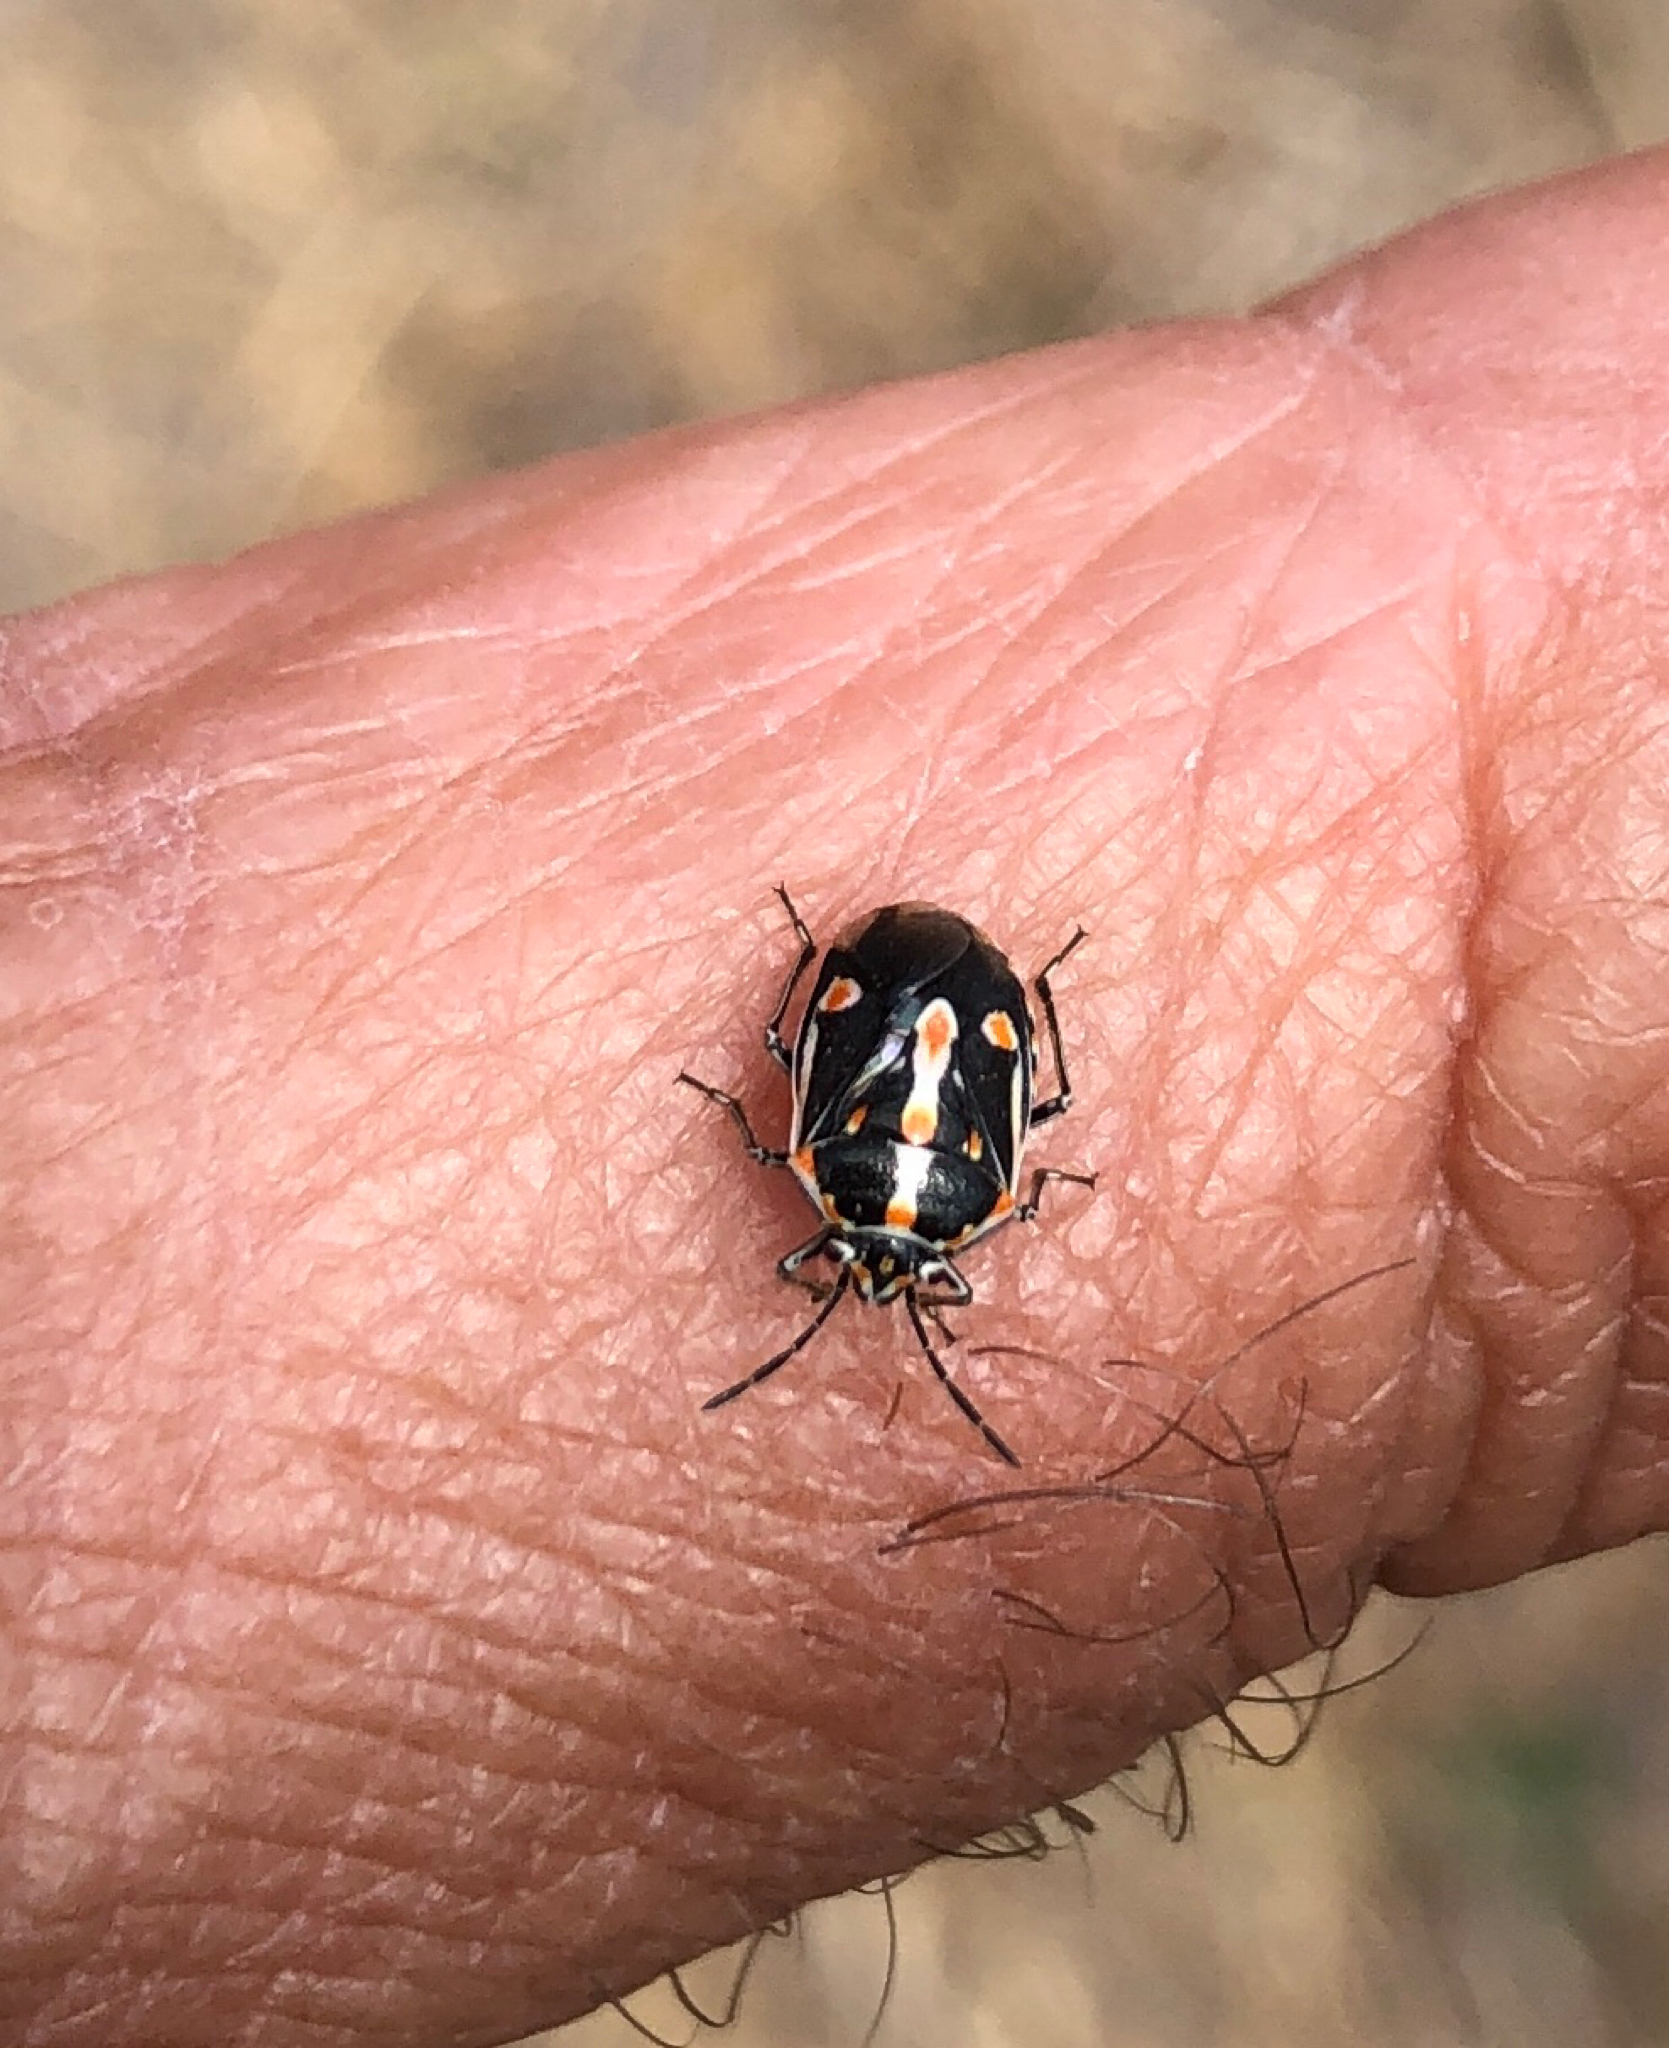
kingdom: Animalia
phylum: Arthropoda
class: Insecta
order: Hemiptera
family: Pentatomidae
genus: Bagrada
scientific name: Bagrada hilaris
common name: Bagrada bug
